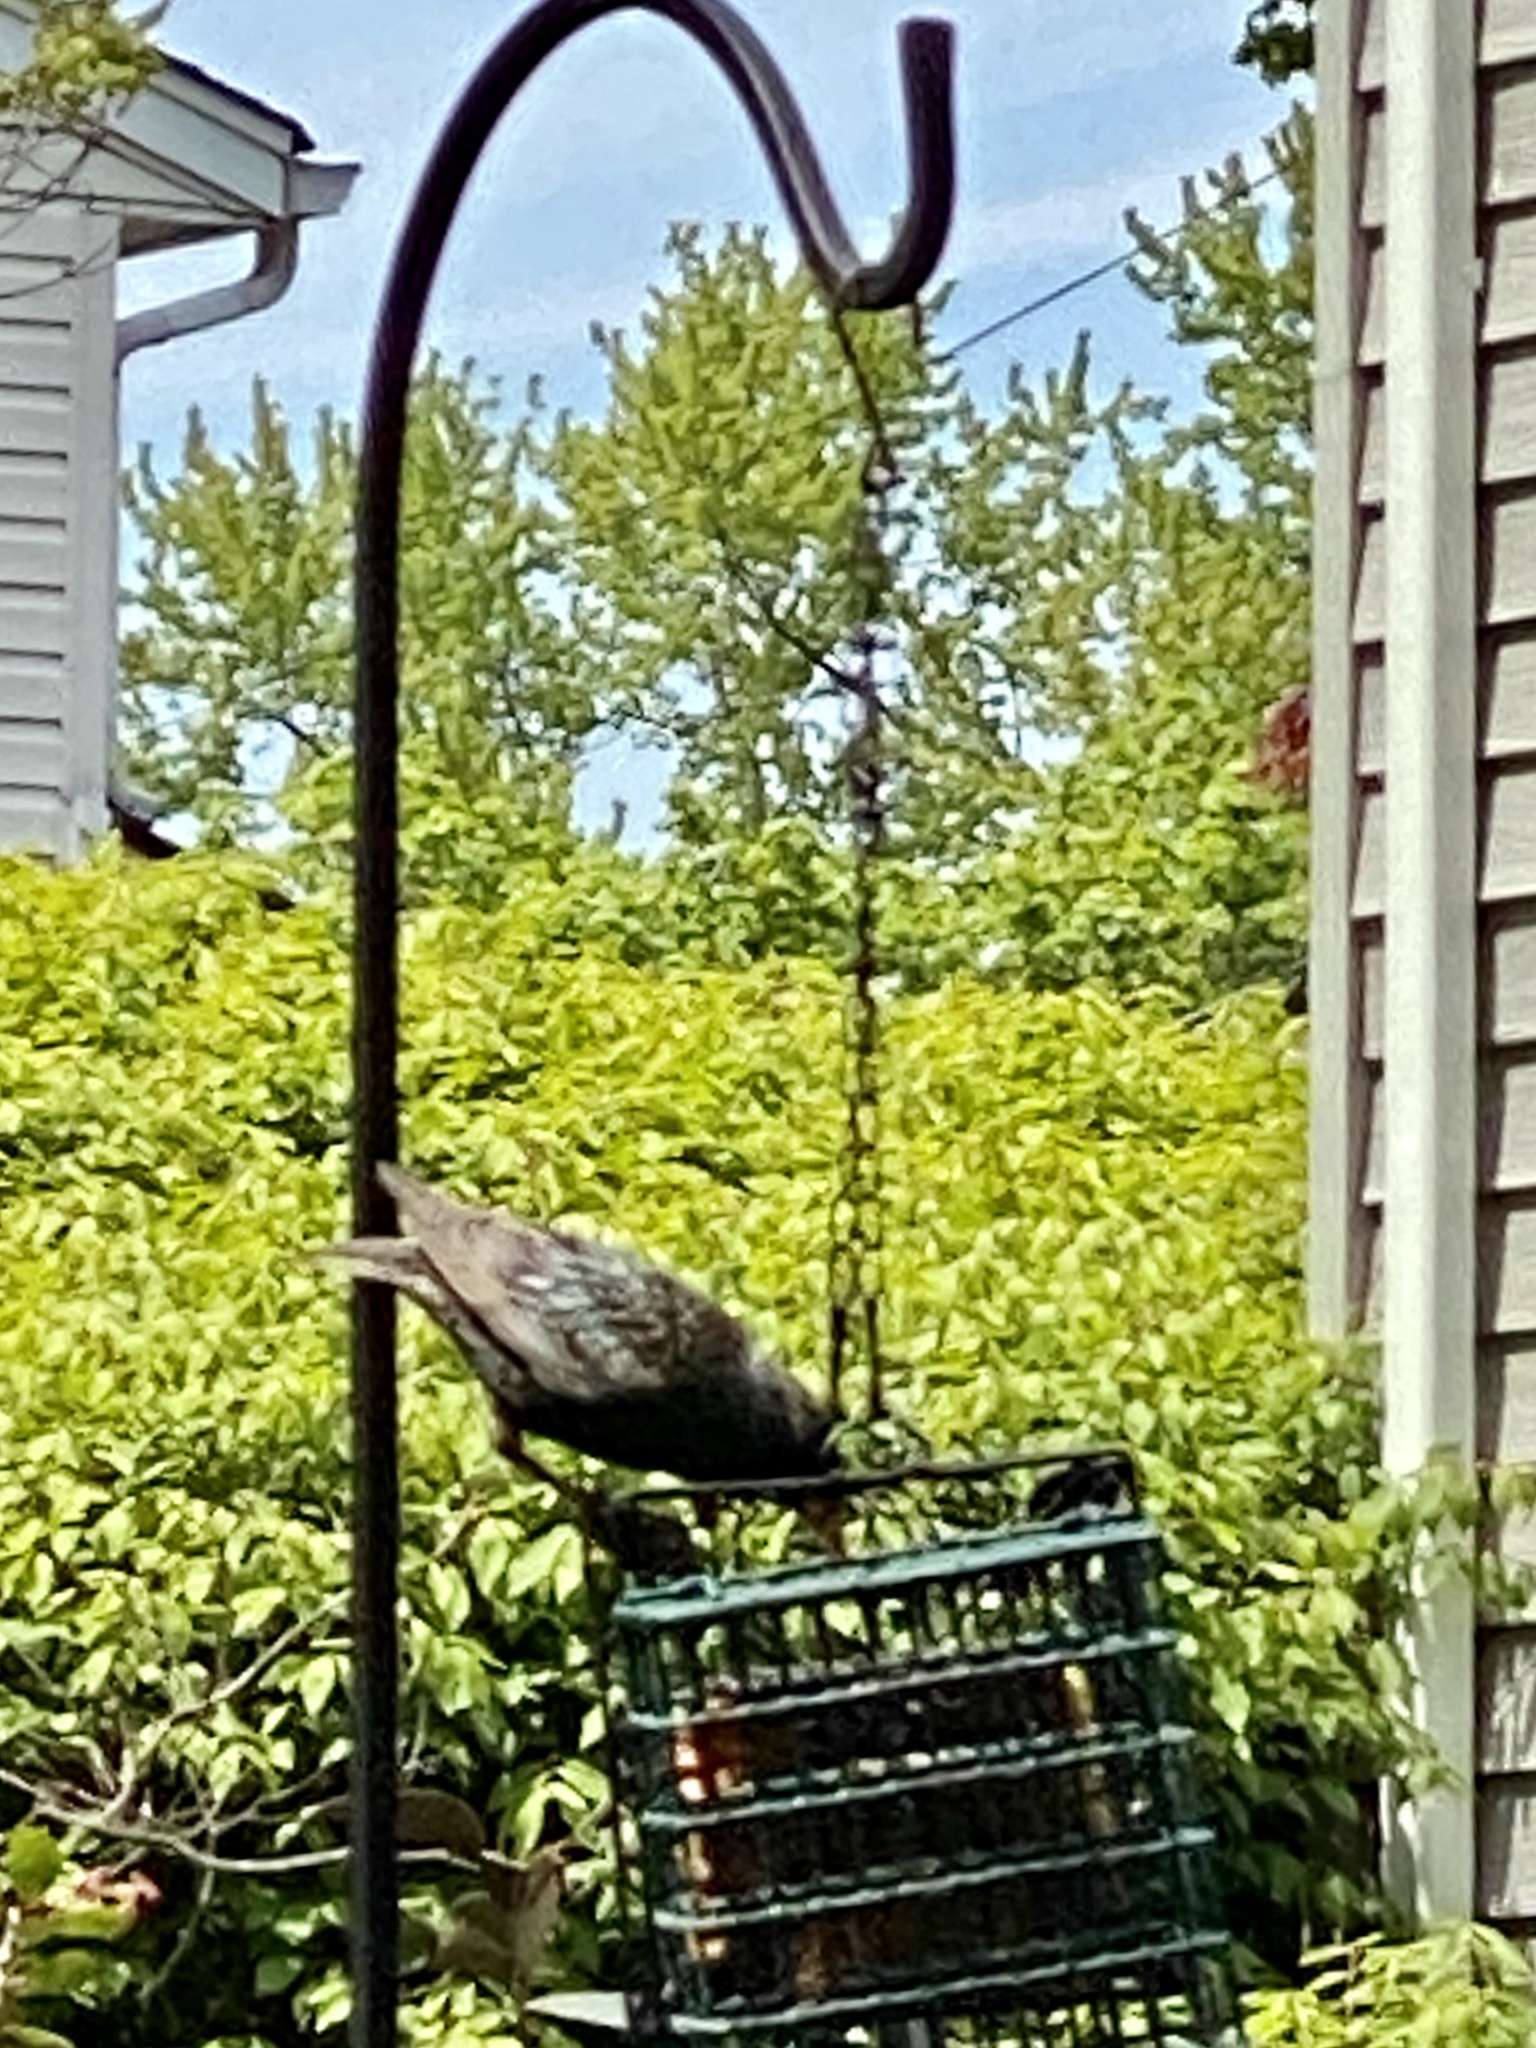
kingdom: Animalia
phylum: Chordata
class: Aves
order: Passeriformes
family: Sturnidae
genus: Sturnus
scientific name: Sturnus vulgaris
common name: Common starling
